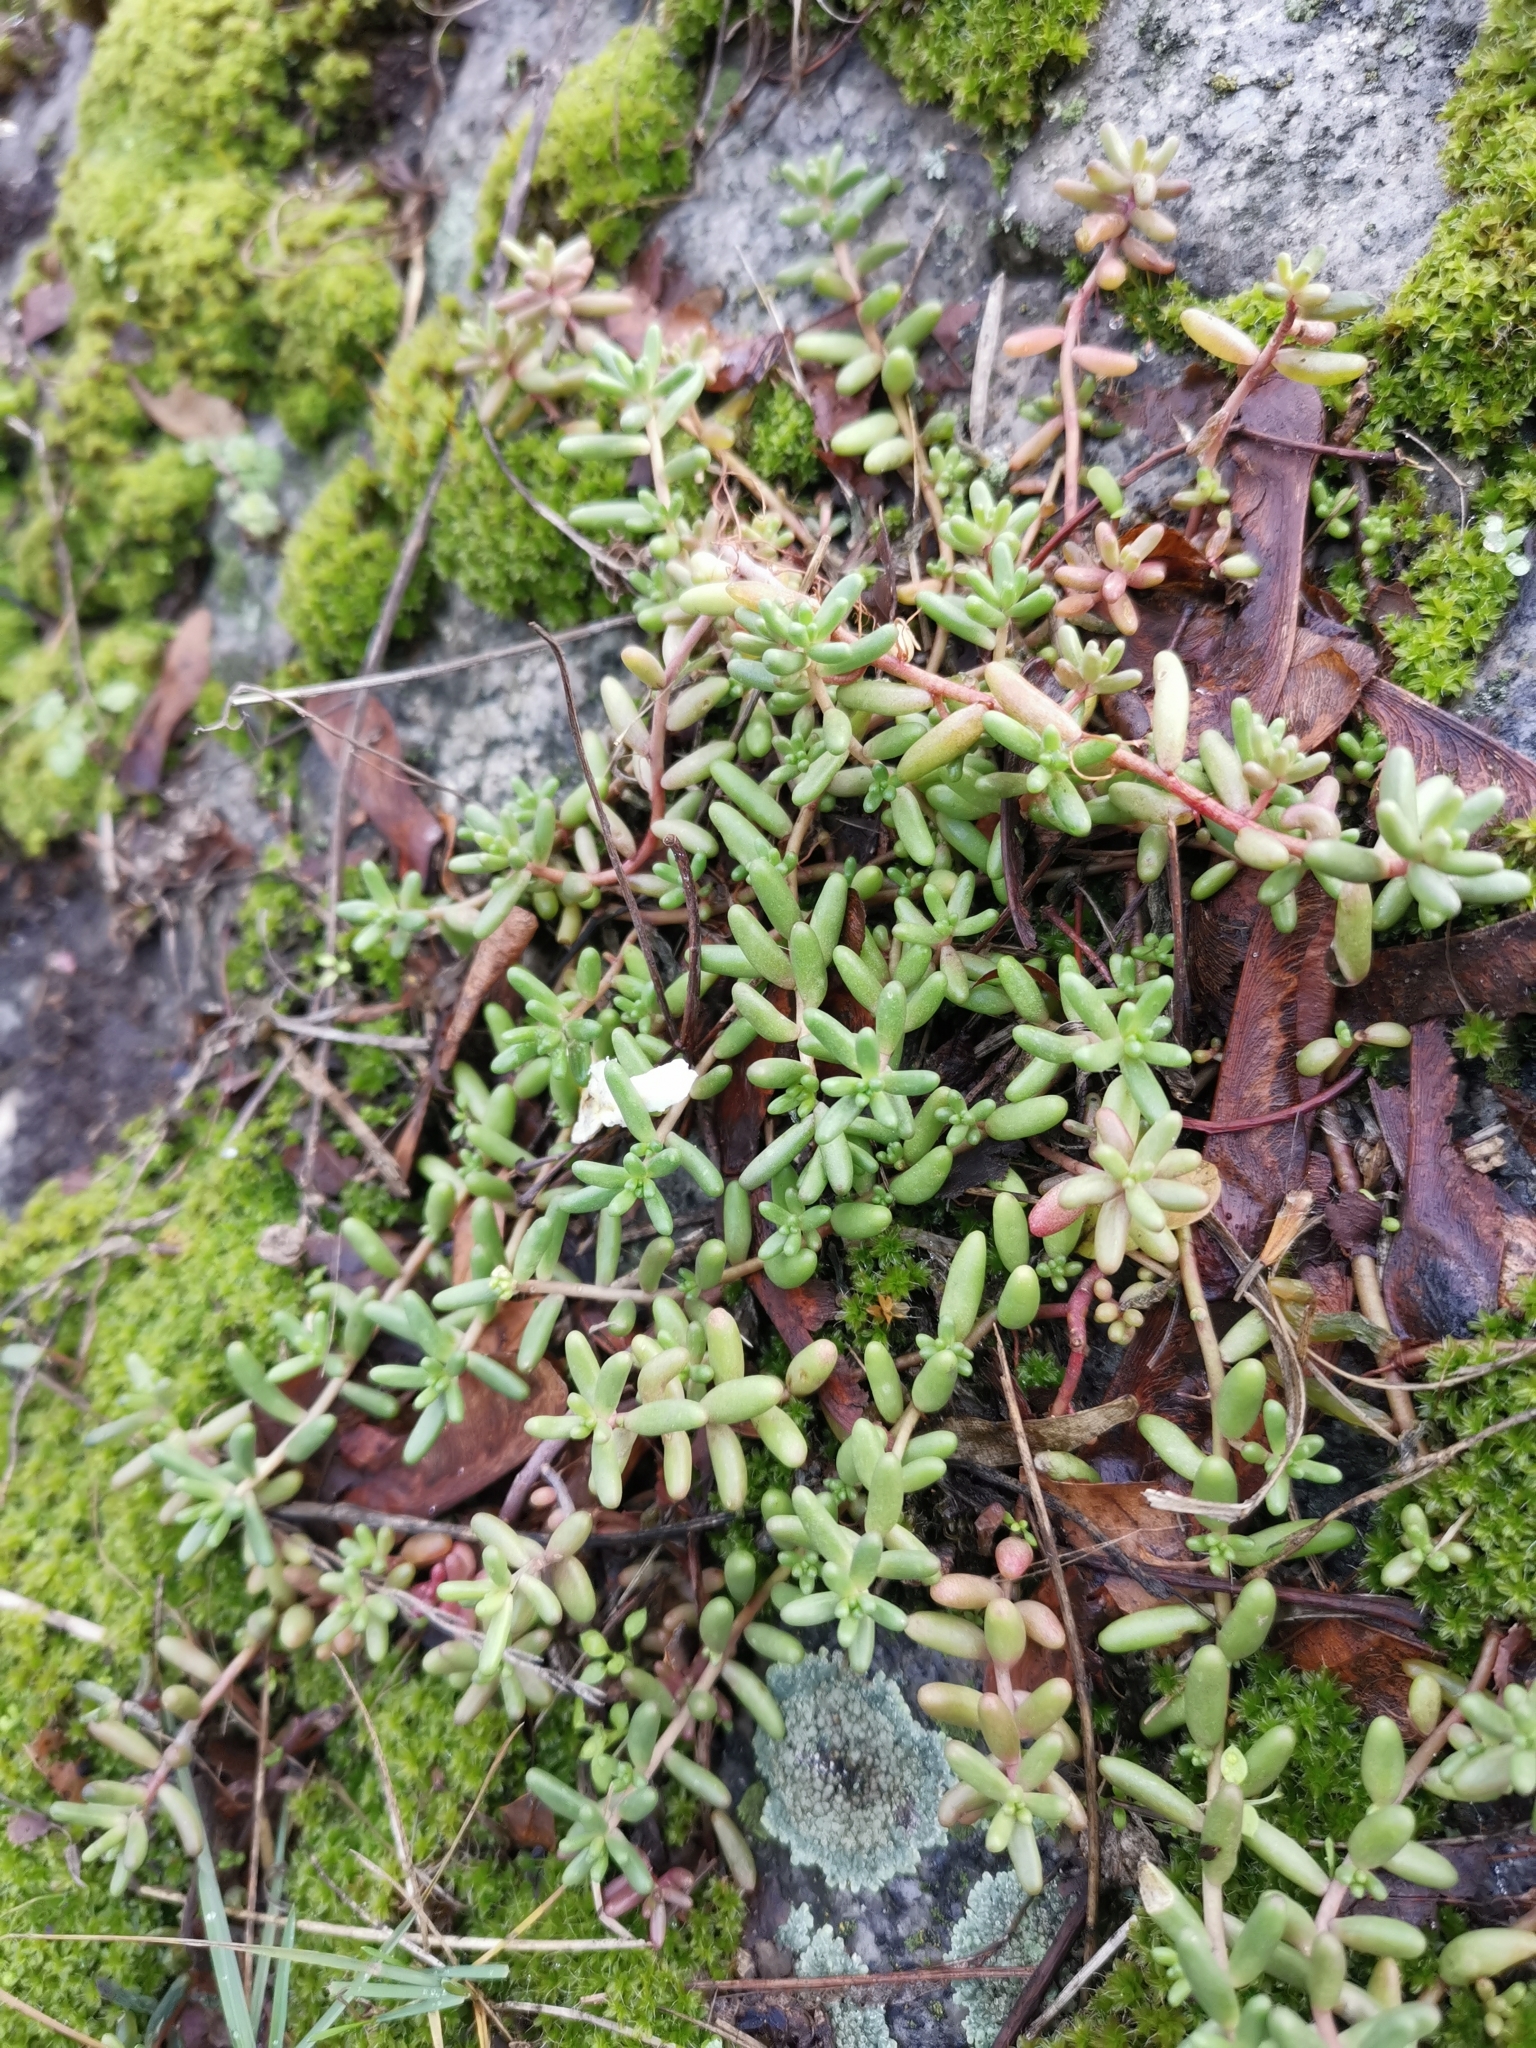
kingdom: Plantae
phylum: Tracheophyta
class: Magnoliopsida
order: Saxifragales
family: Crassulaceae
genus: Sedum
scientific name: Sedum album
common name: White stonecrop
